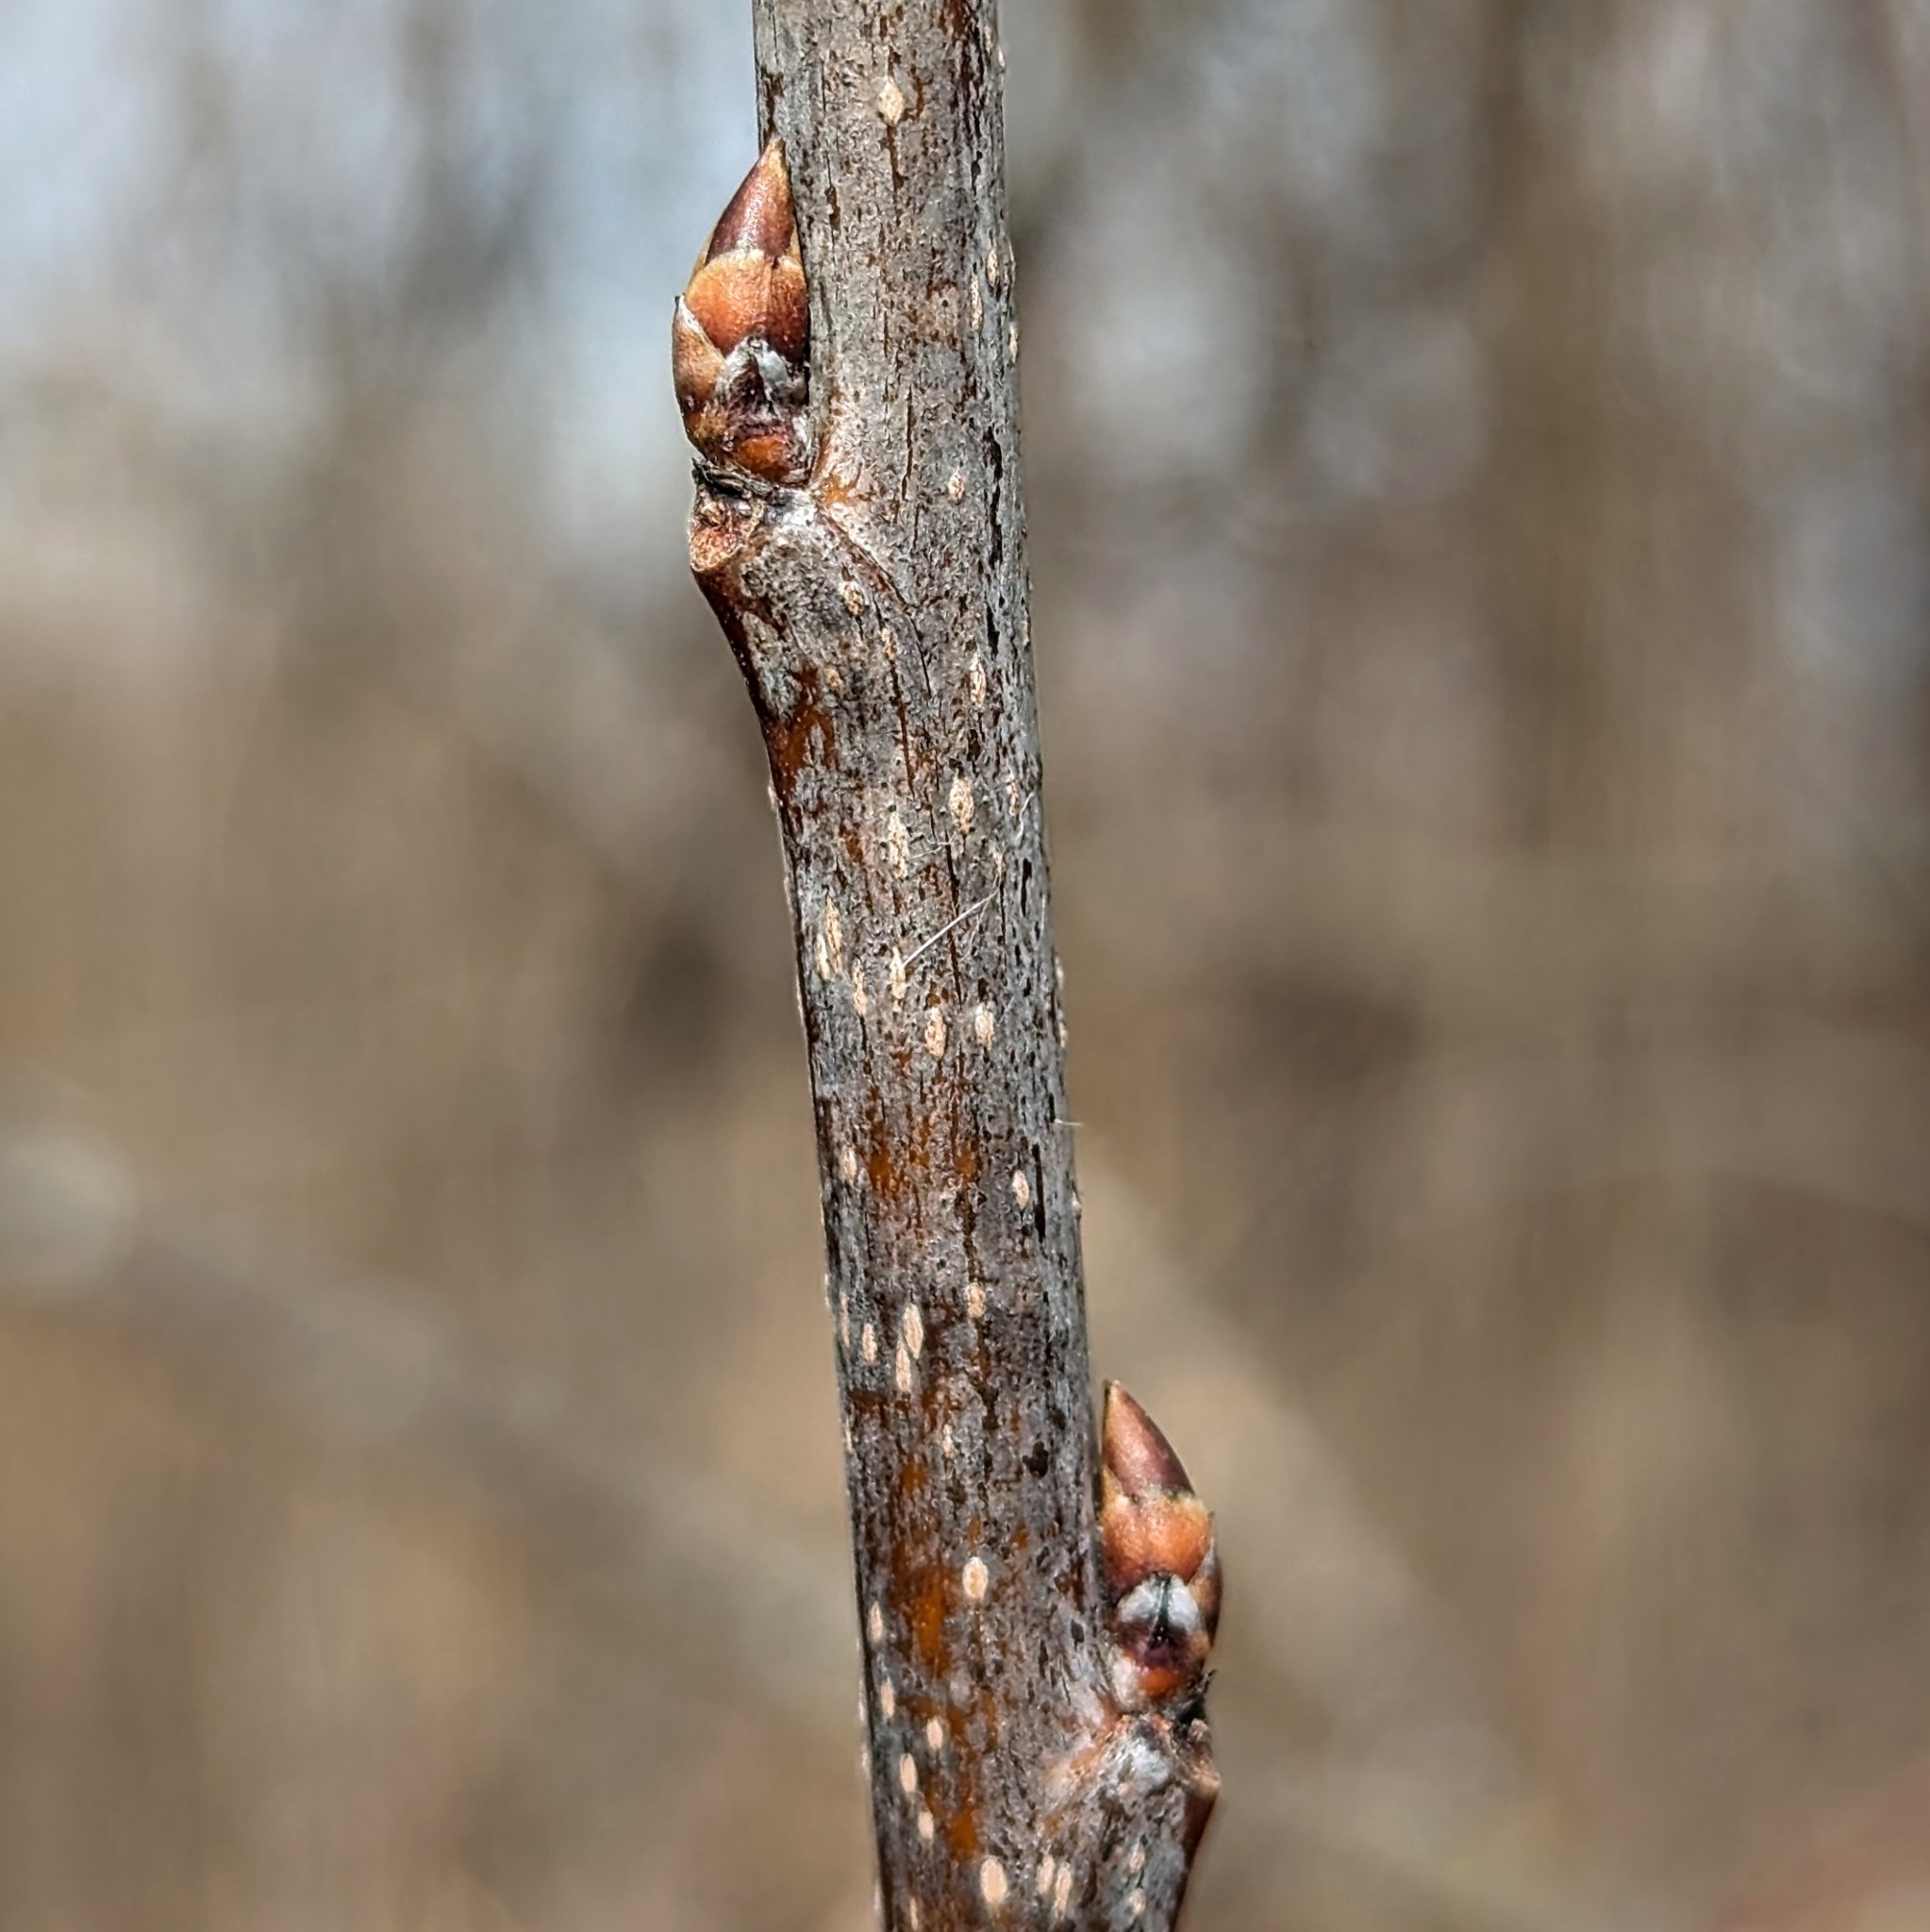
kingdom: Plantae
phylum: Tracheophyta
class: Magnoliopsida
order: Rosales
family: Rosaceae
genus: Prunus
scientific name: Prunus
